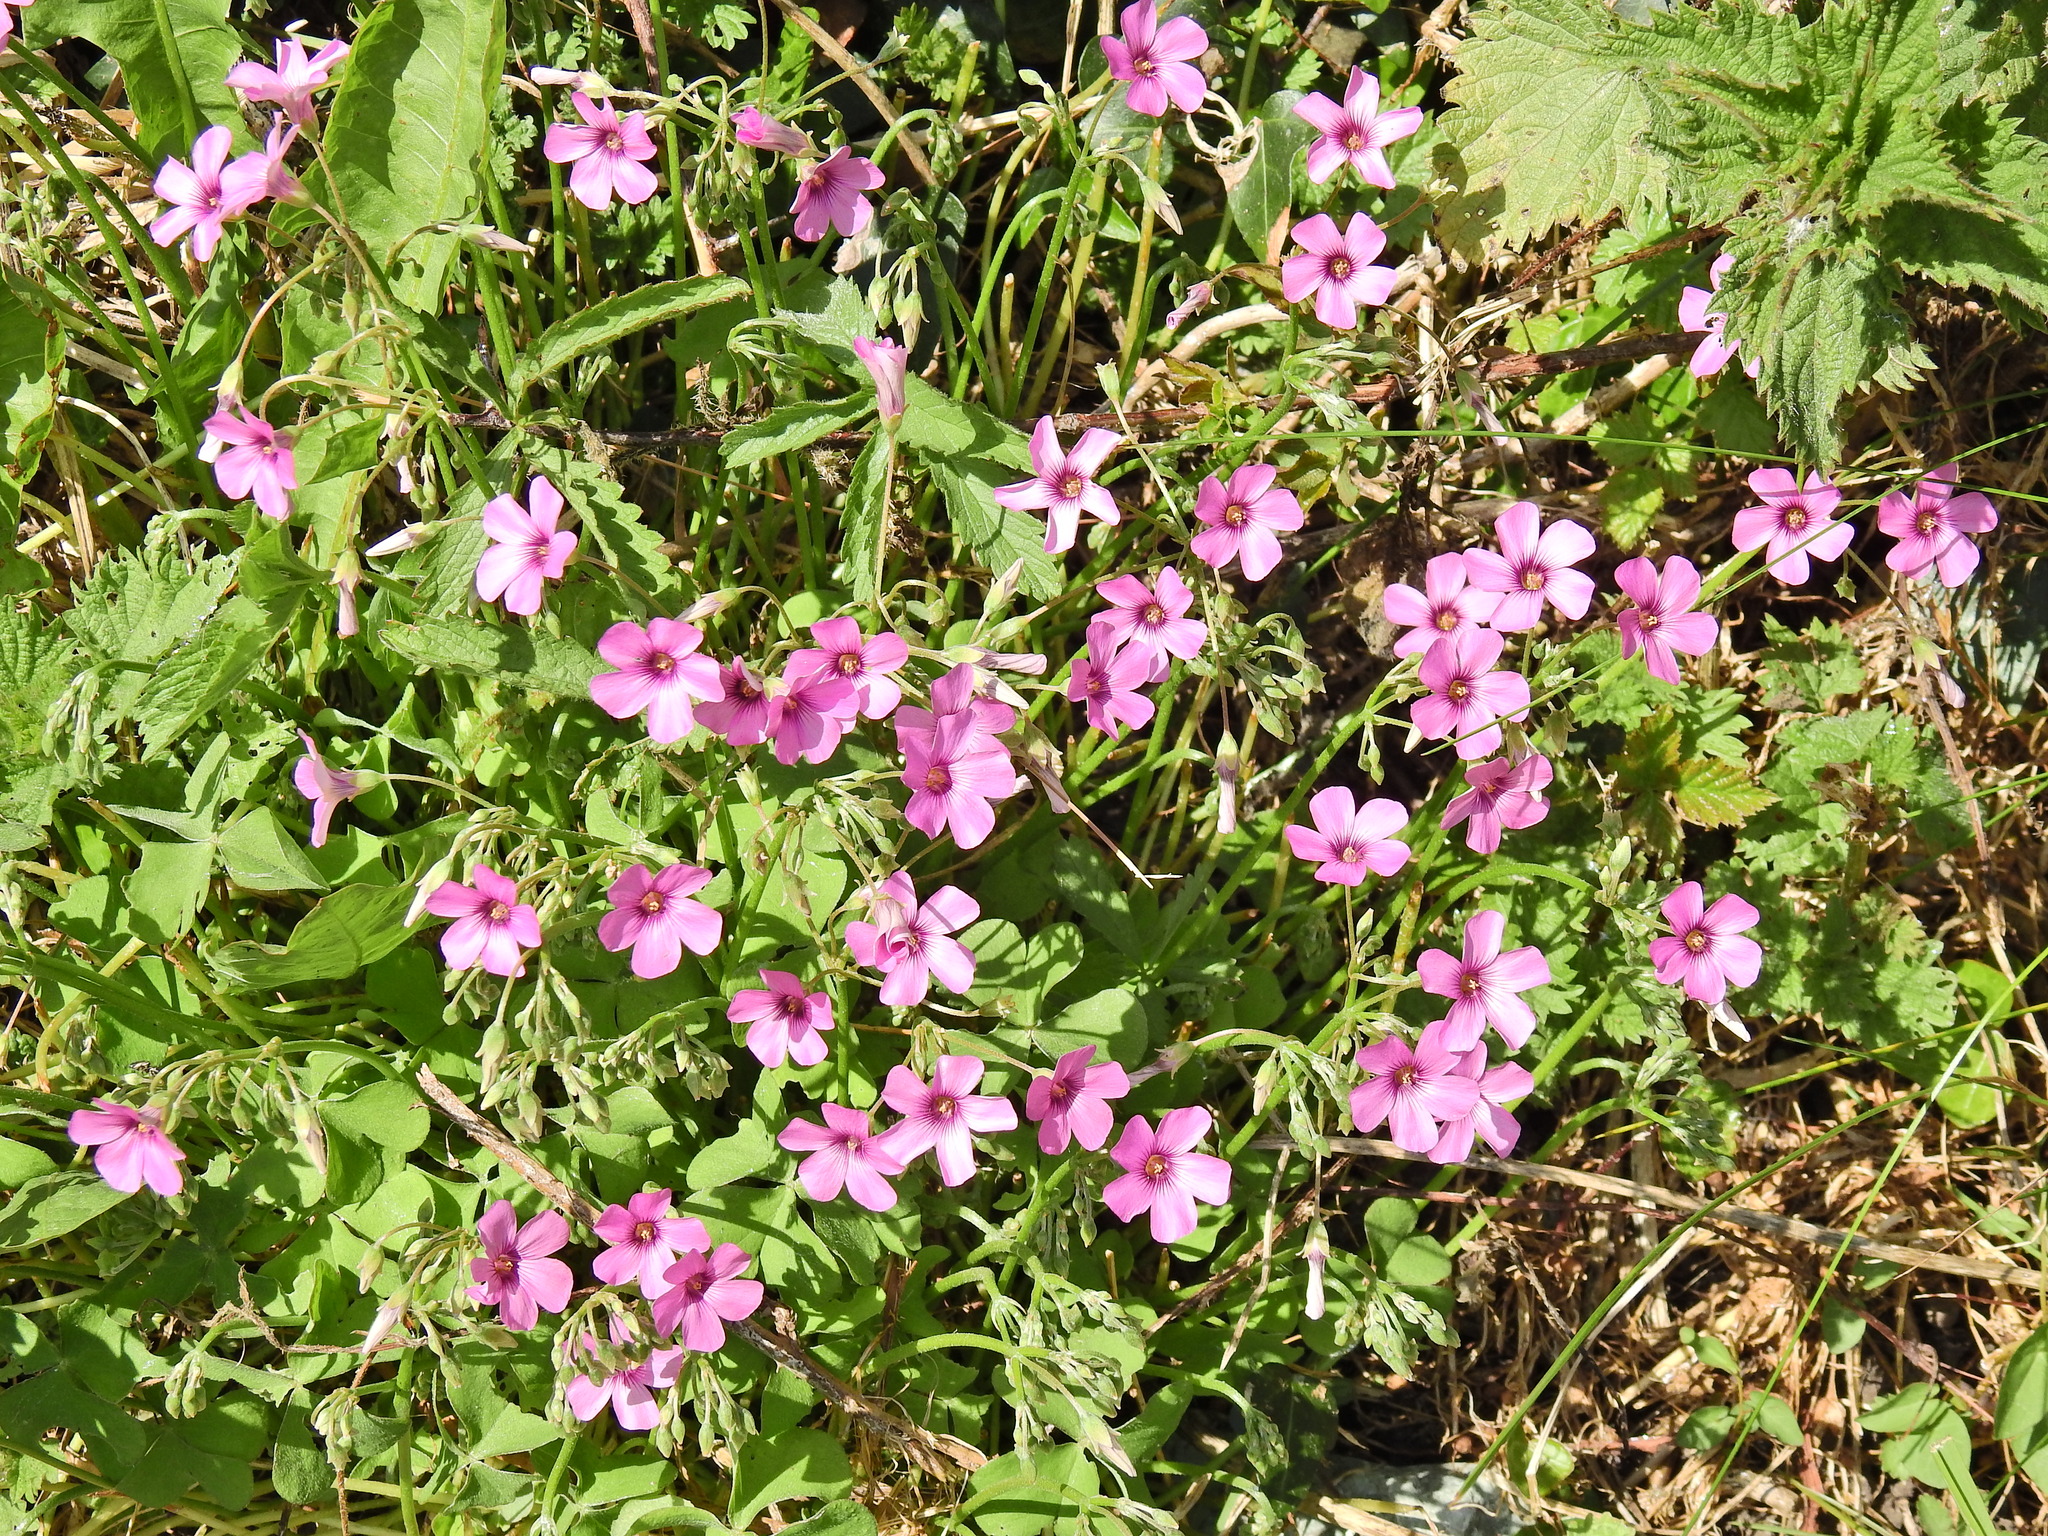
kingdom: Plantae
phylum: Tracheophyta
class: Magnoliopsida
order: Oxalidales
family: Oxalidaceae
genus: Oxalis
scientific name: Oxalis articulata
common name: Pink-sorrel
